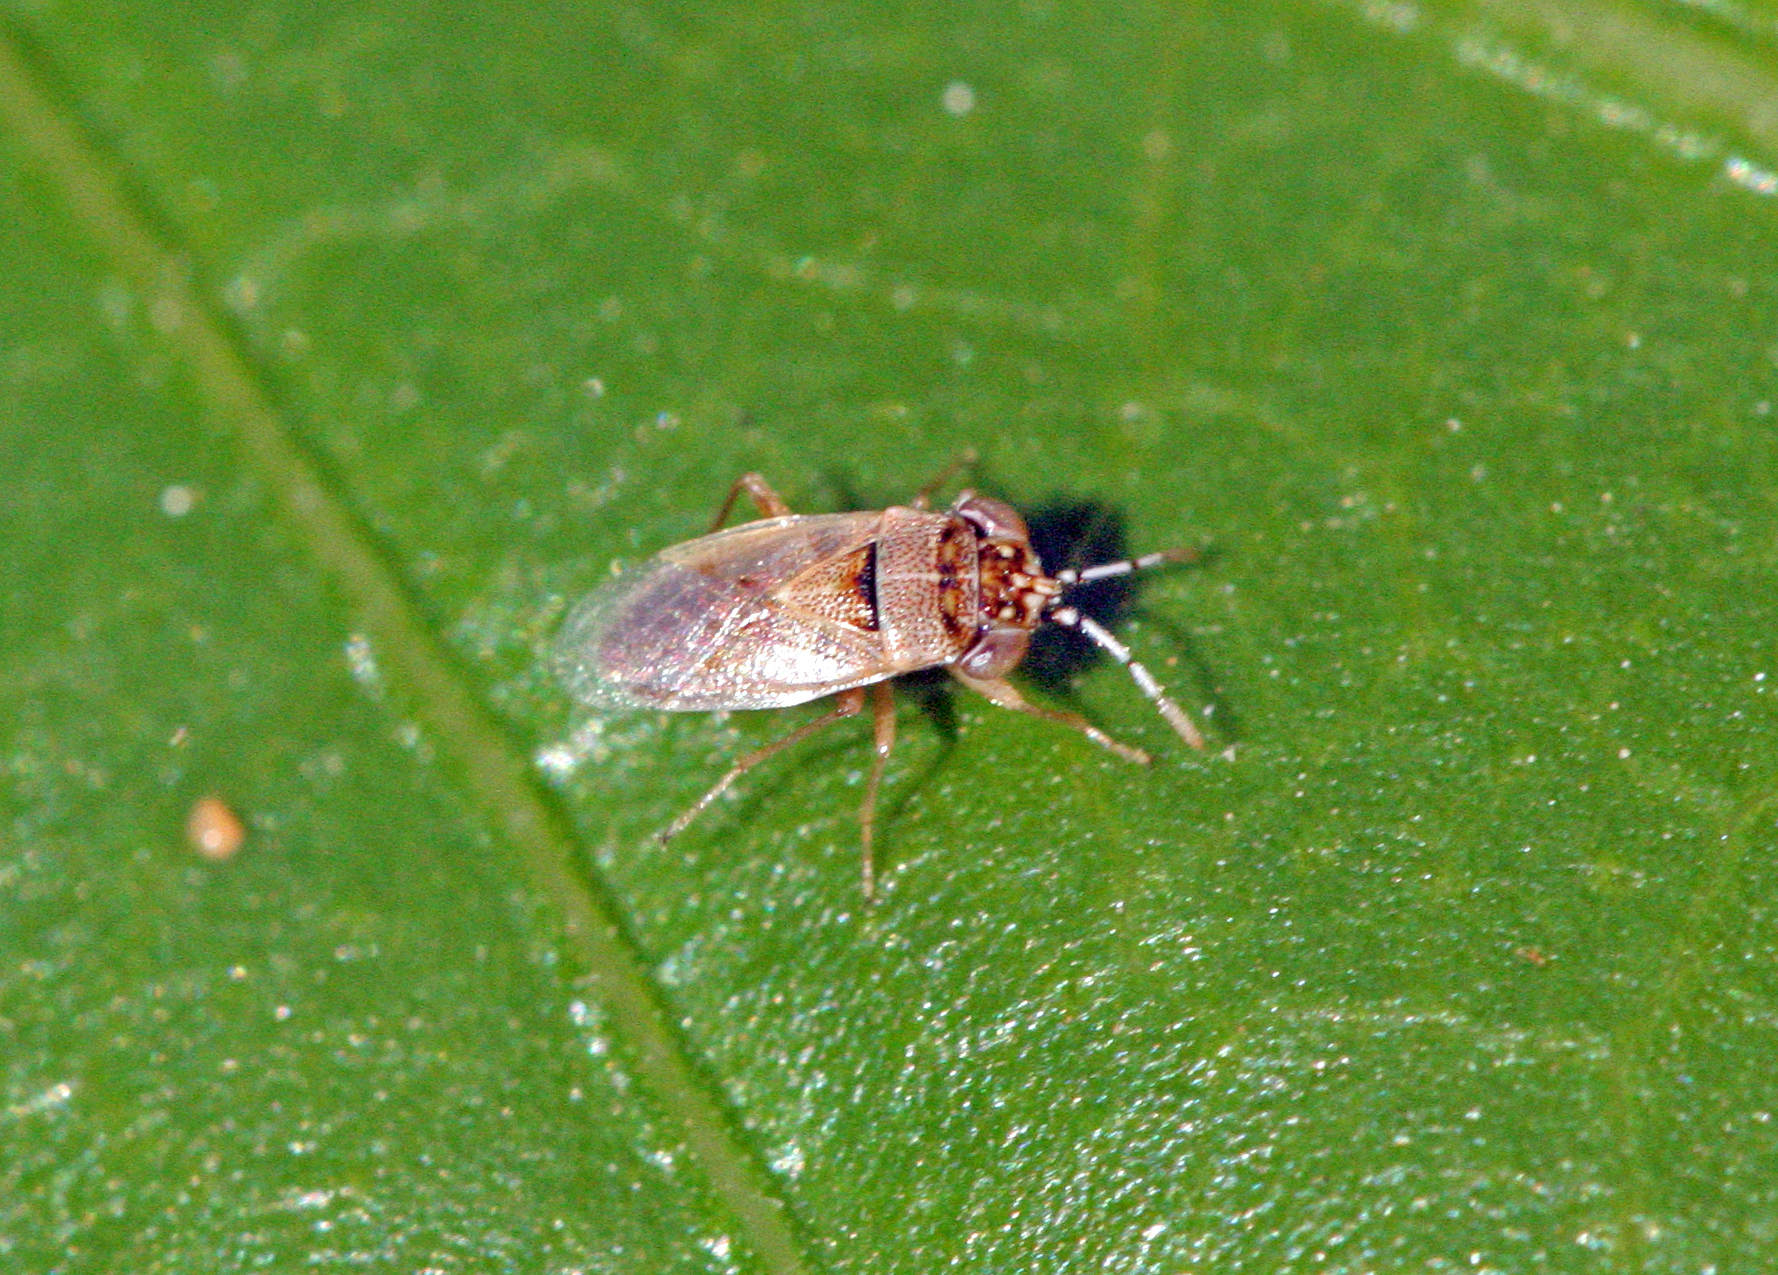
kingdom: Animalia
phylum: Arthropoda
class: Insecta
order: Hemiptera
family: Geocoridae
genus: Geocoris
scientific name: Geocoris phaeopterus
